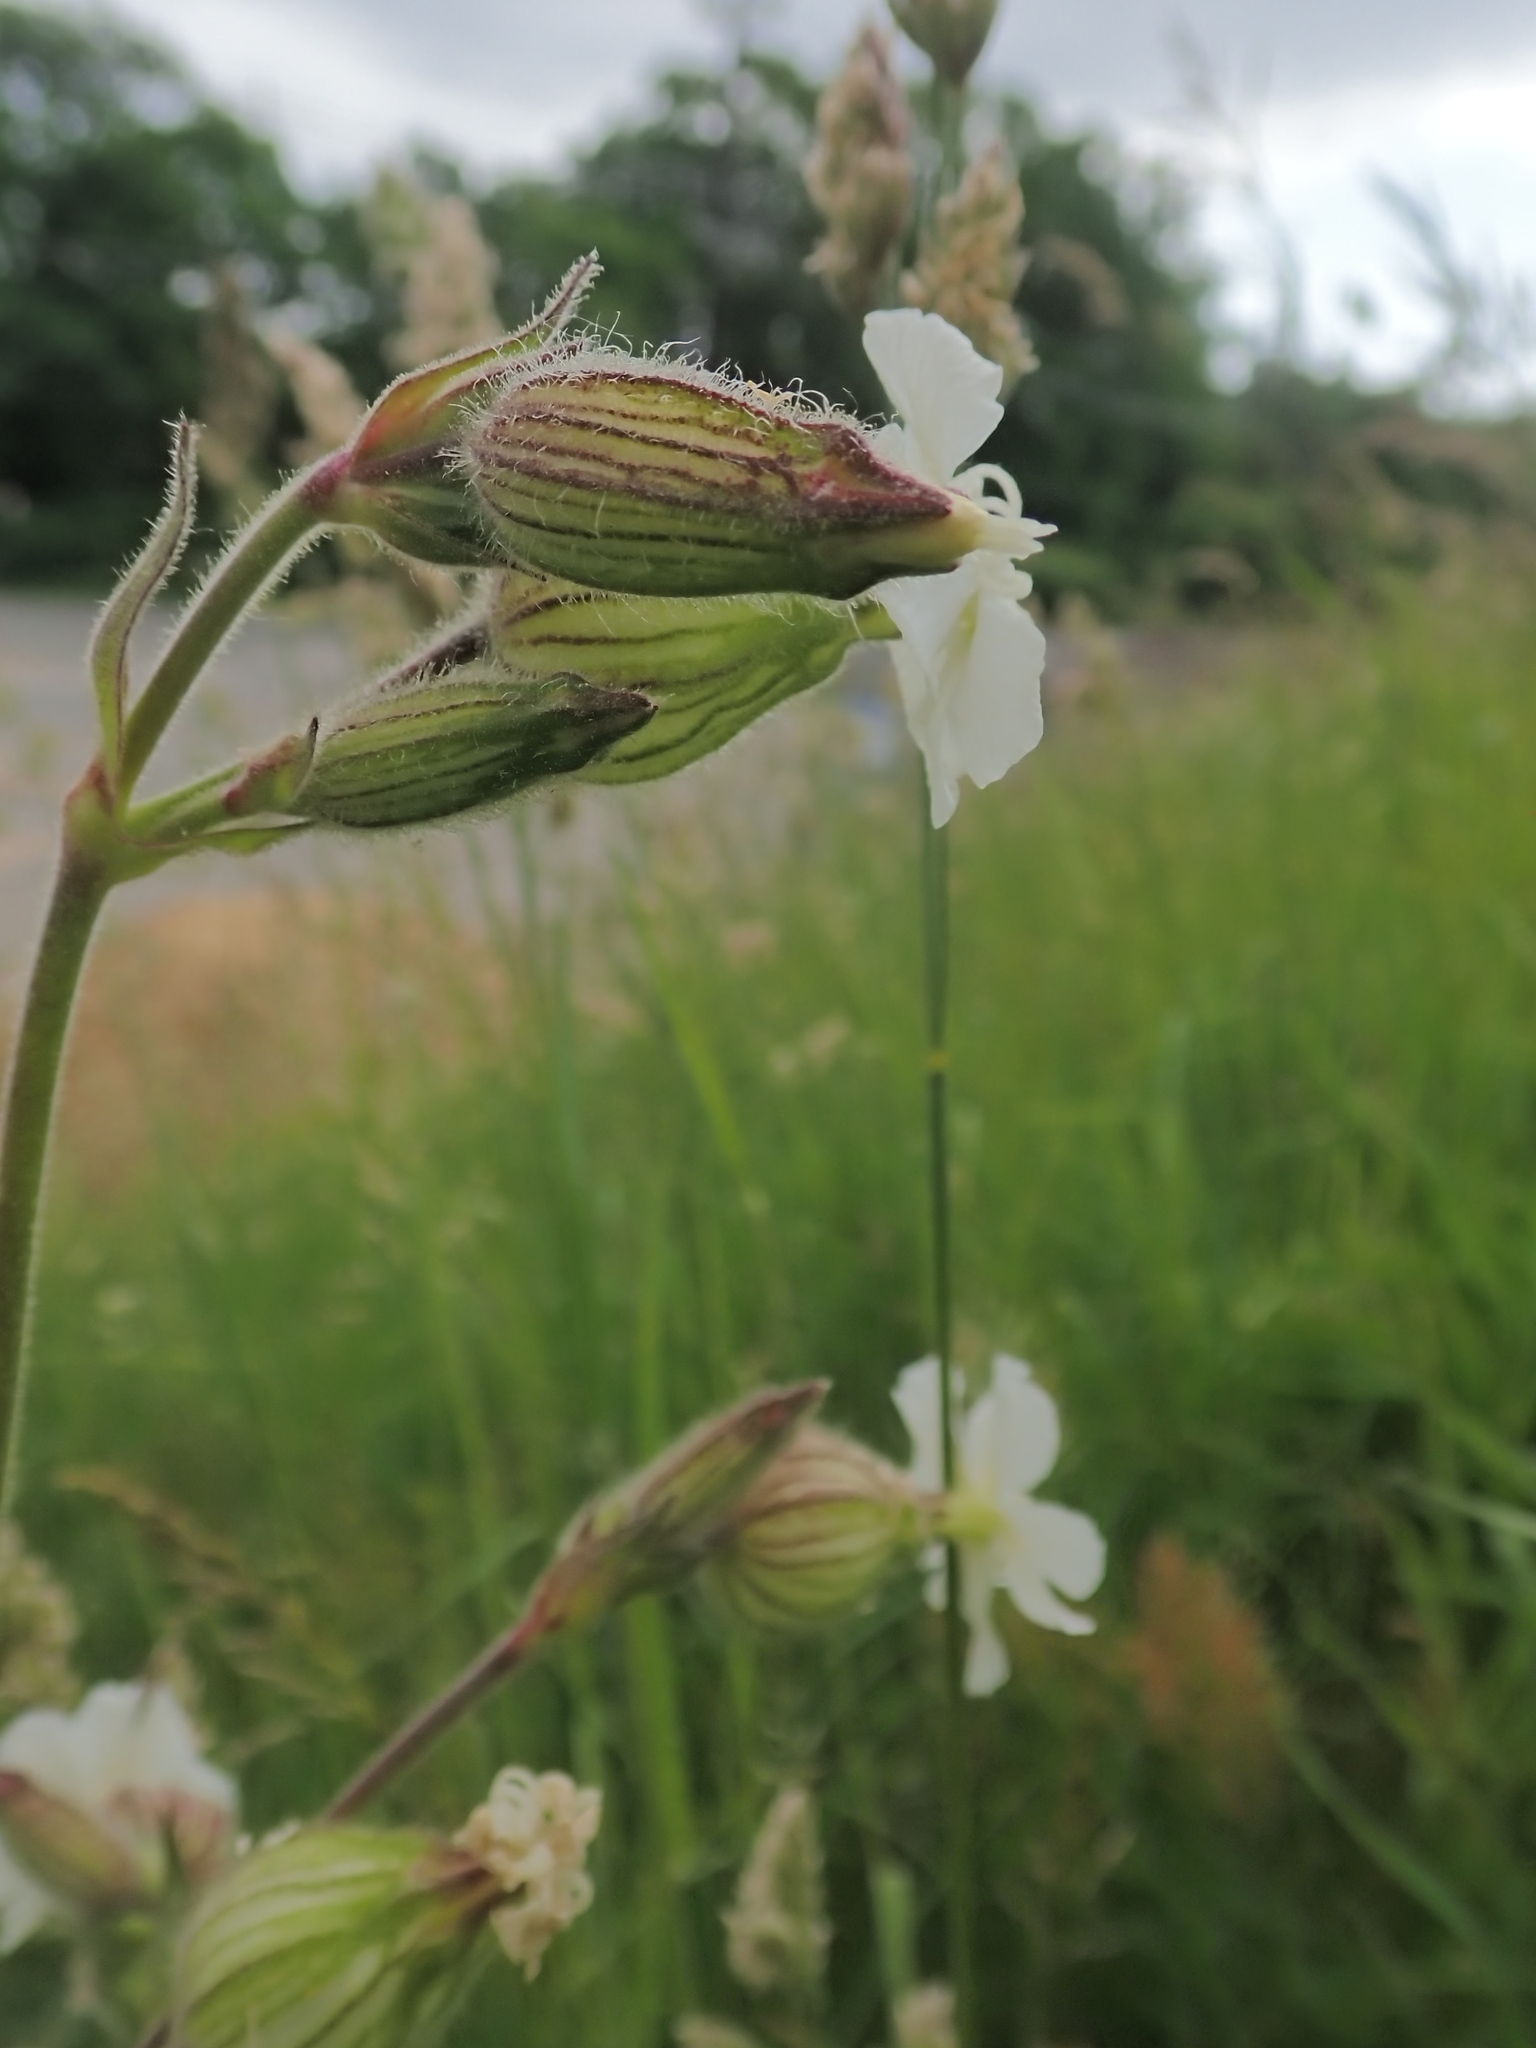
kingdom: Plantae
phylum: Tracheophyta
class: Magnoliopsida
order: Caryophyllales
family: Caryophyllaceae
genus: Silene
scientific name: Silene latifolia
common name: White campion
